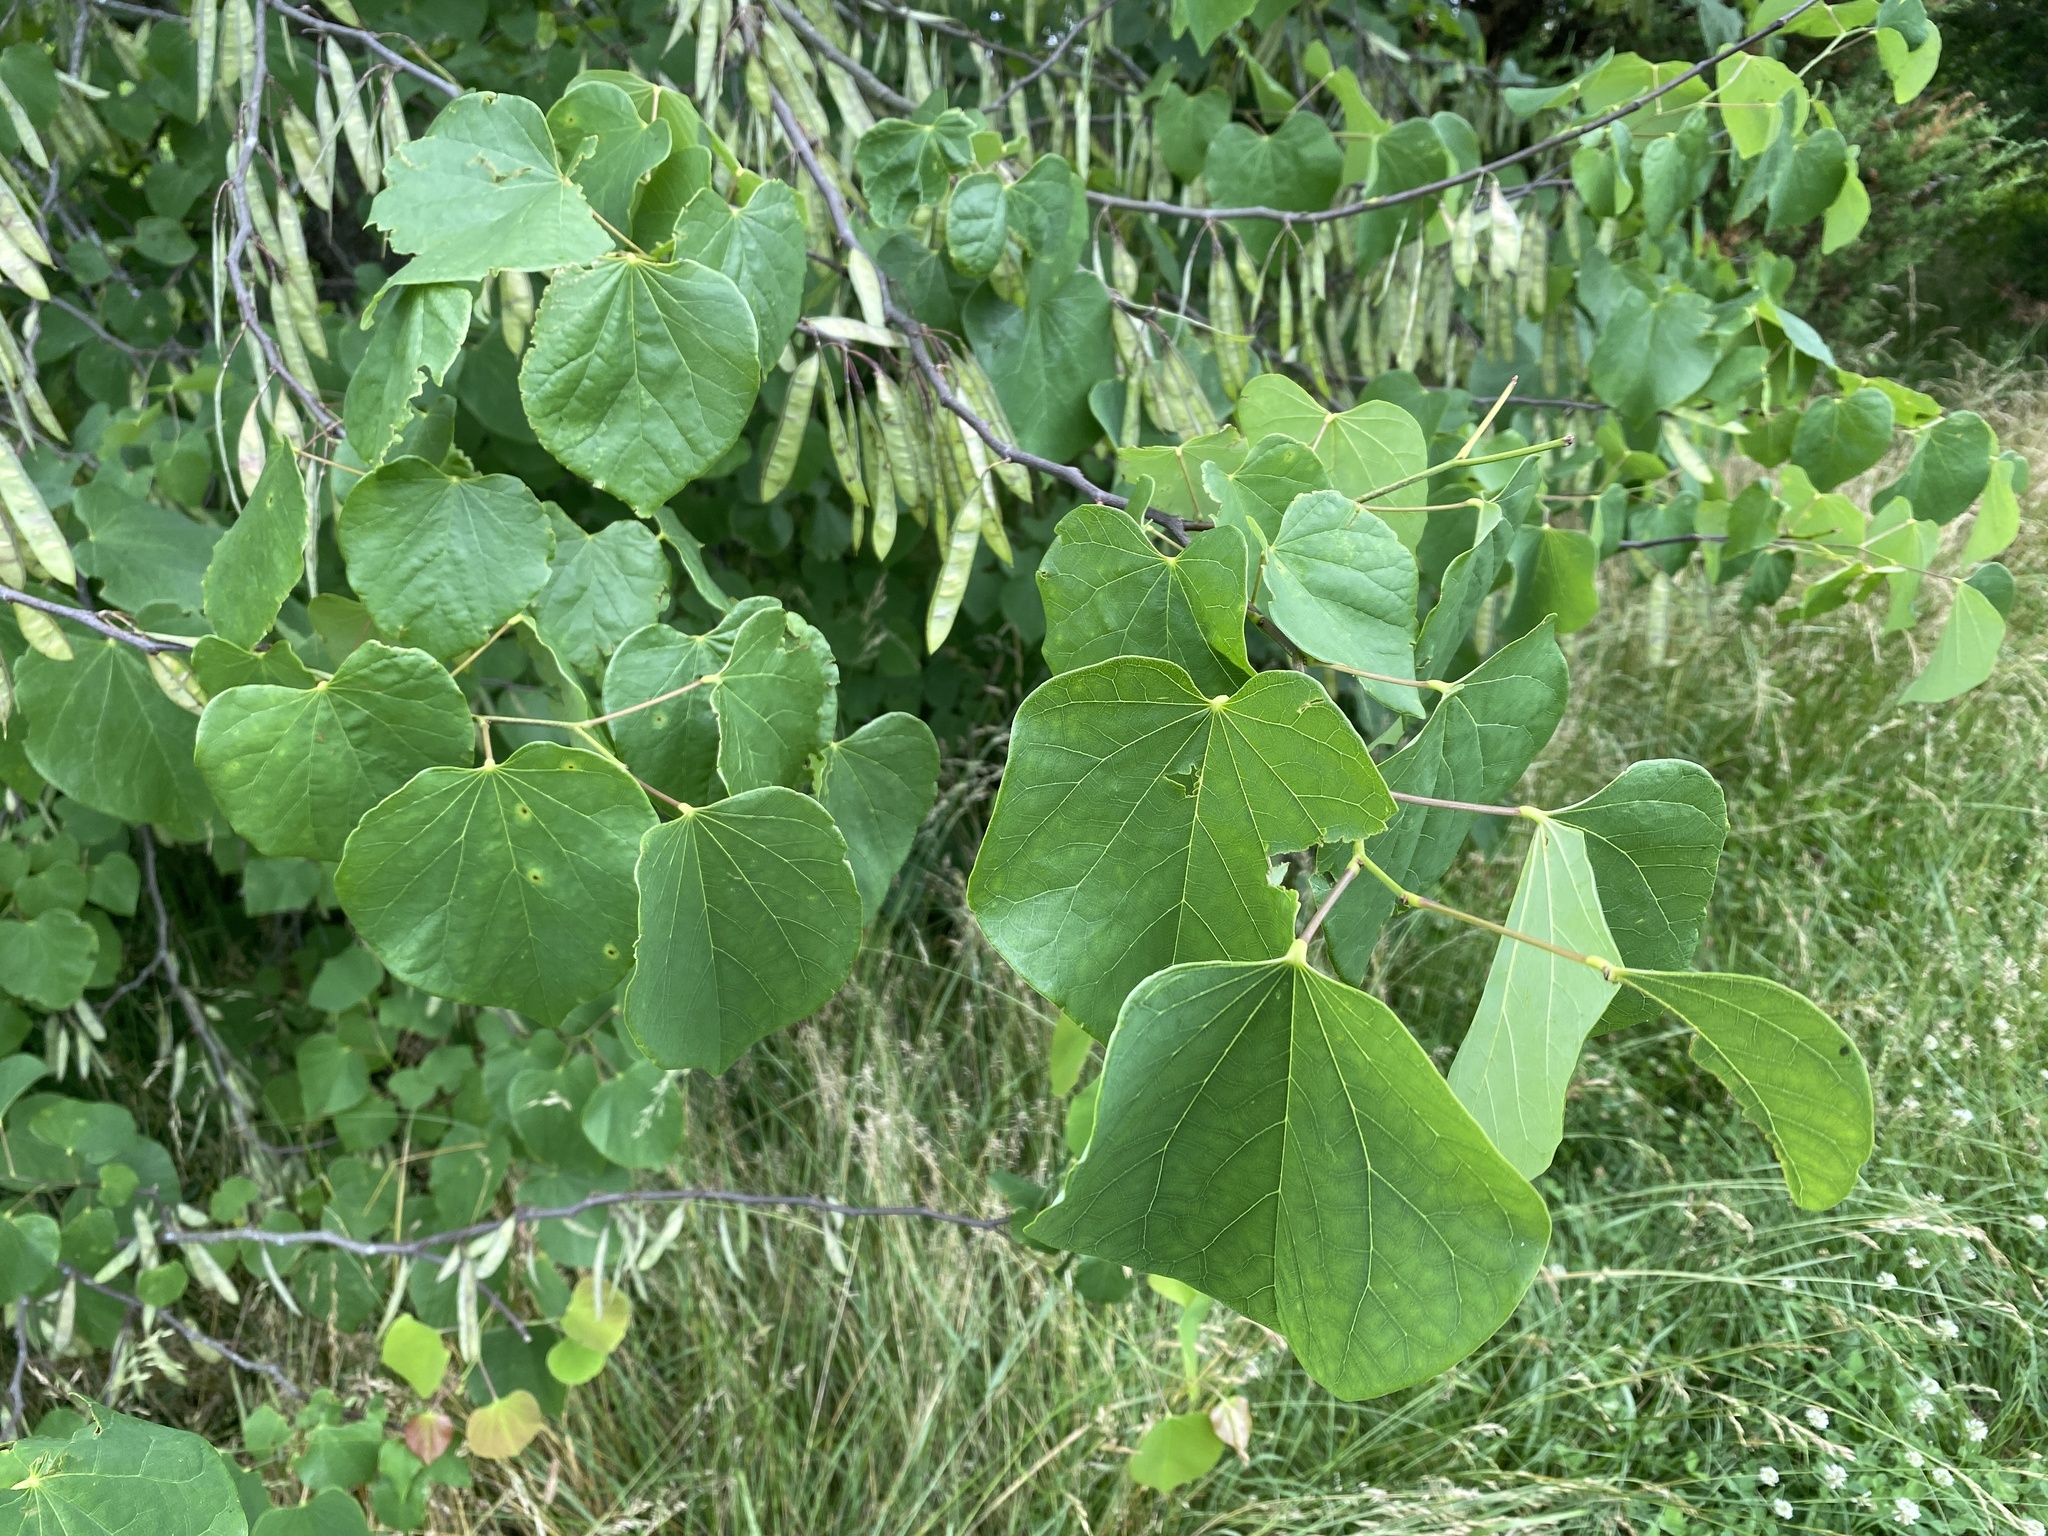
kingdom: Plantae
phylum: Tracheophyta
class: Magnoliopsida
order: Fabales
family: Fabaceae
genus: Cercis
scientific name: Cercis canadensis
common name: Eastern redbud
